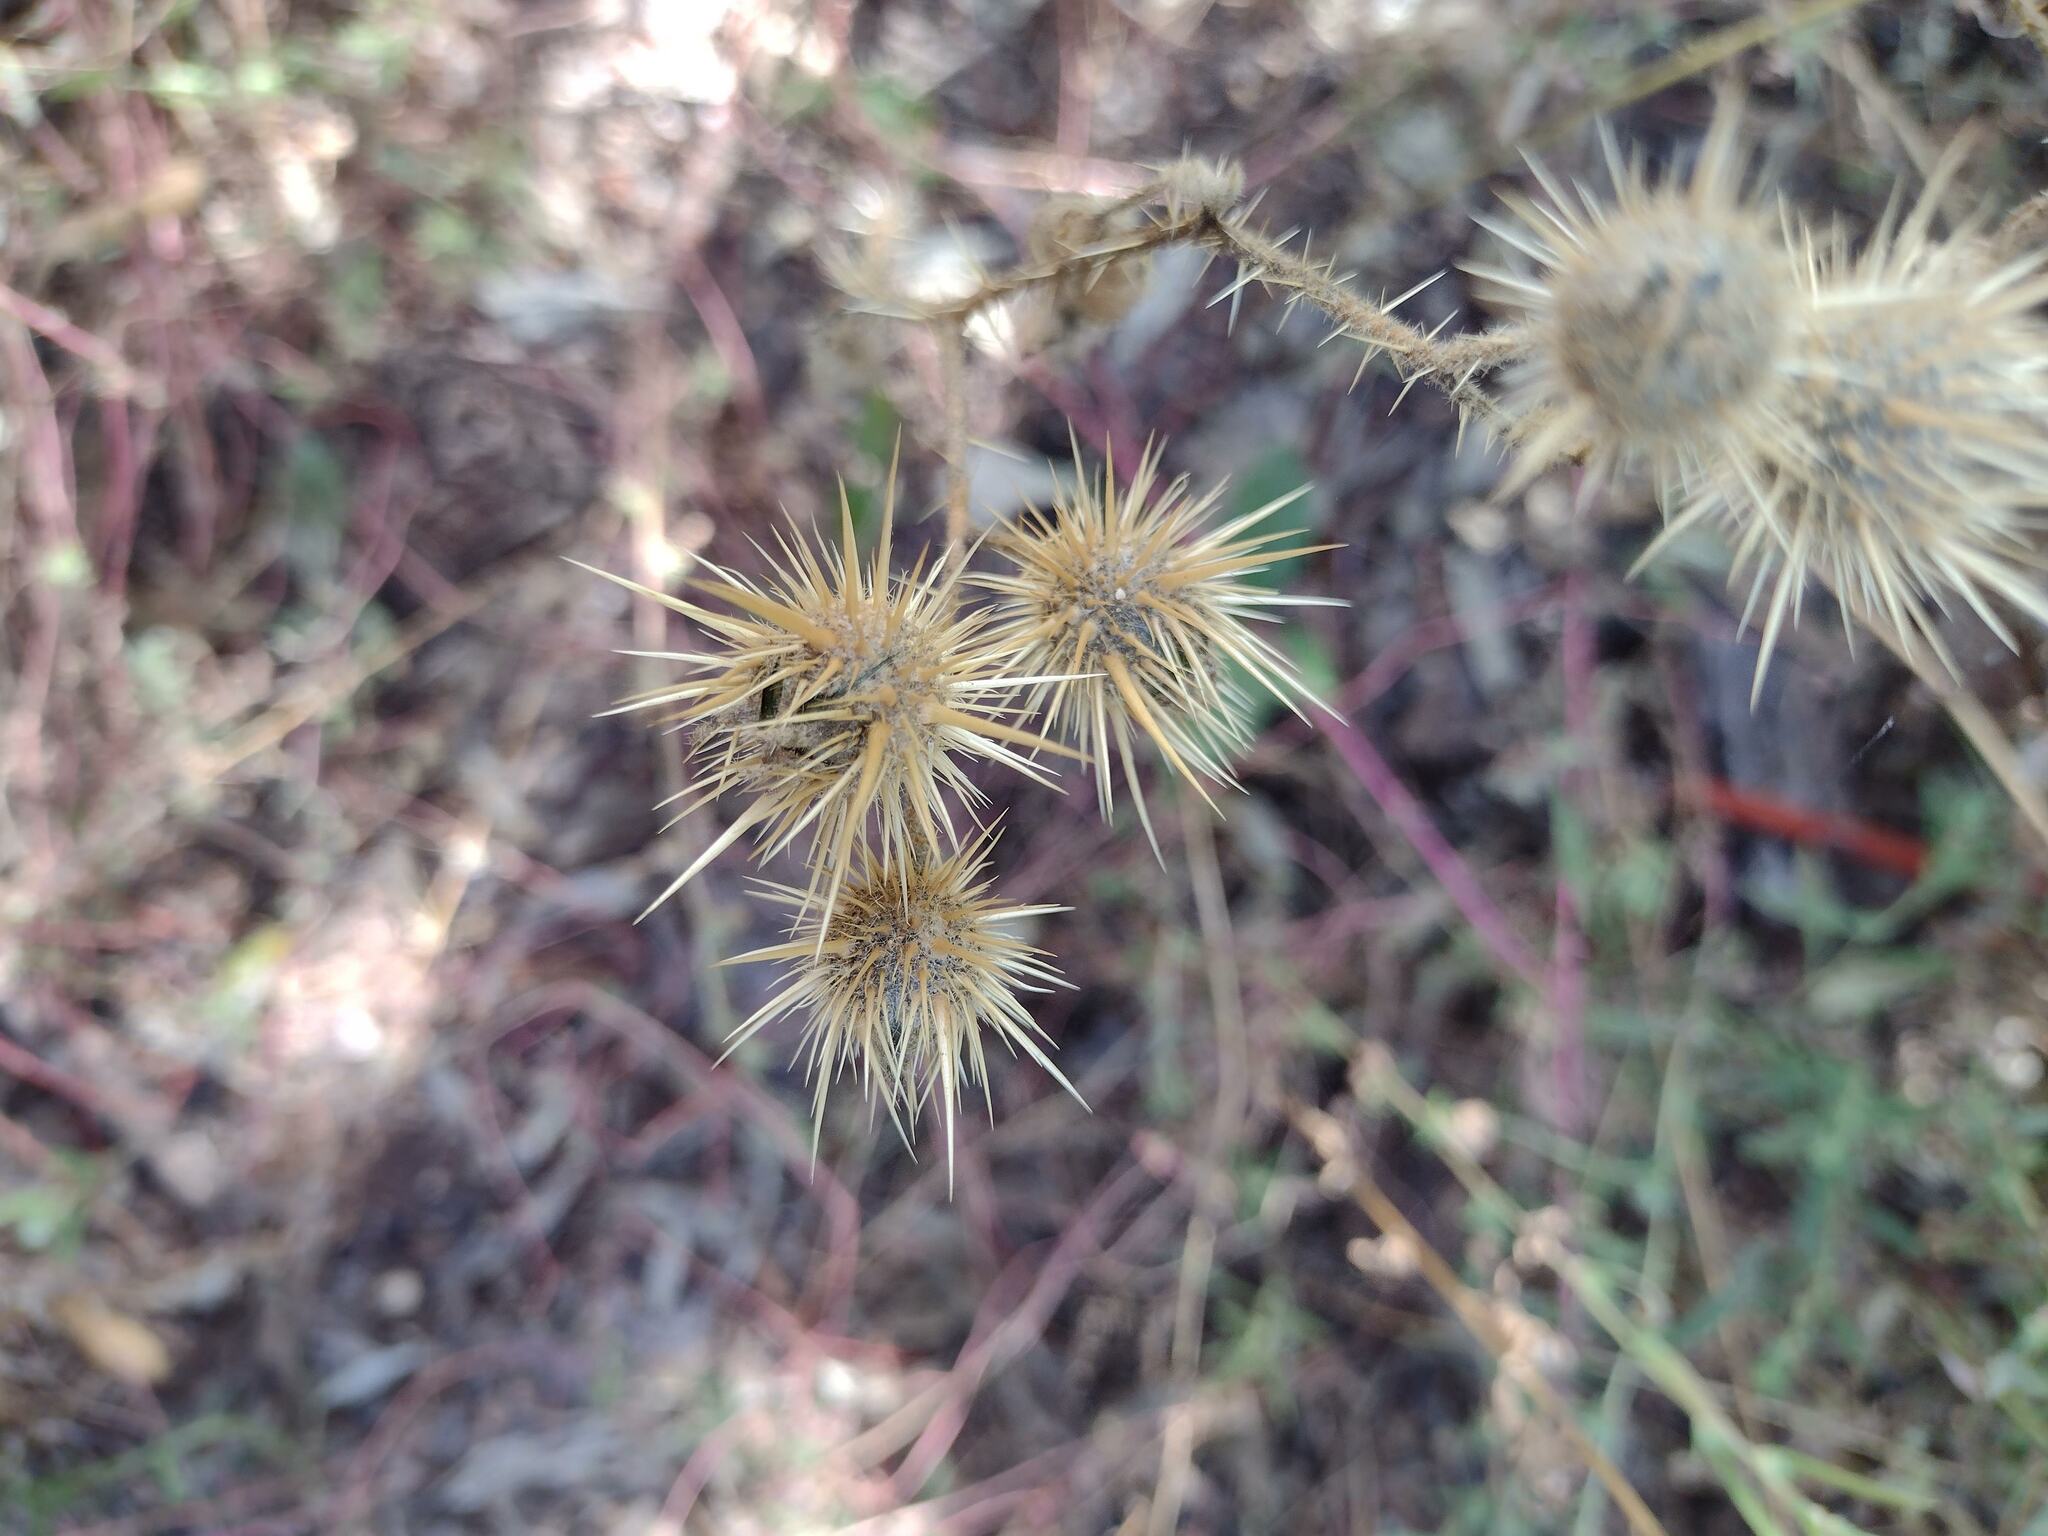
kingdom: Plantae
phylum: Tracheophyta
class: Magnoliopsida
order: Solanales
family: Solanaceae
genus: Solanum
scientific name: Solanum angustifolium
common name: Buffalobur nightshade
